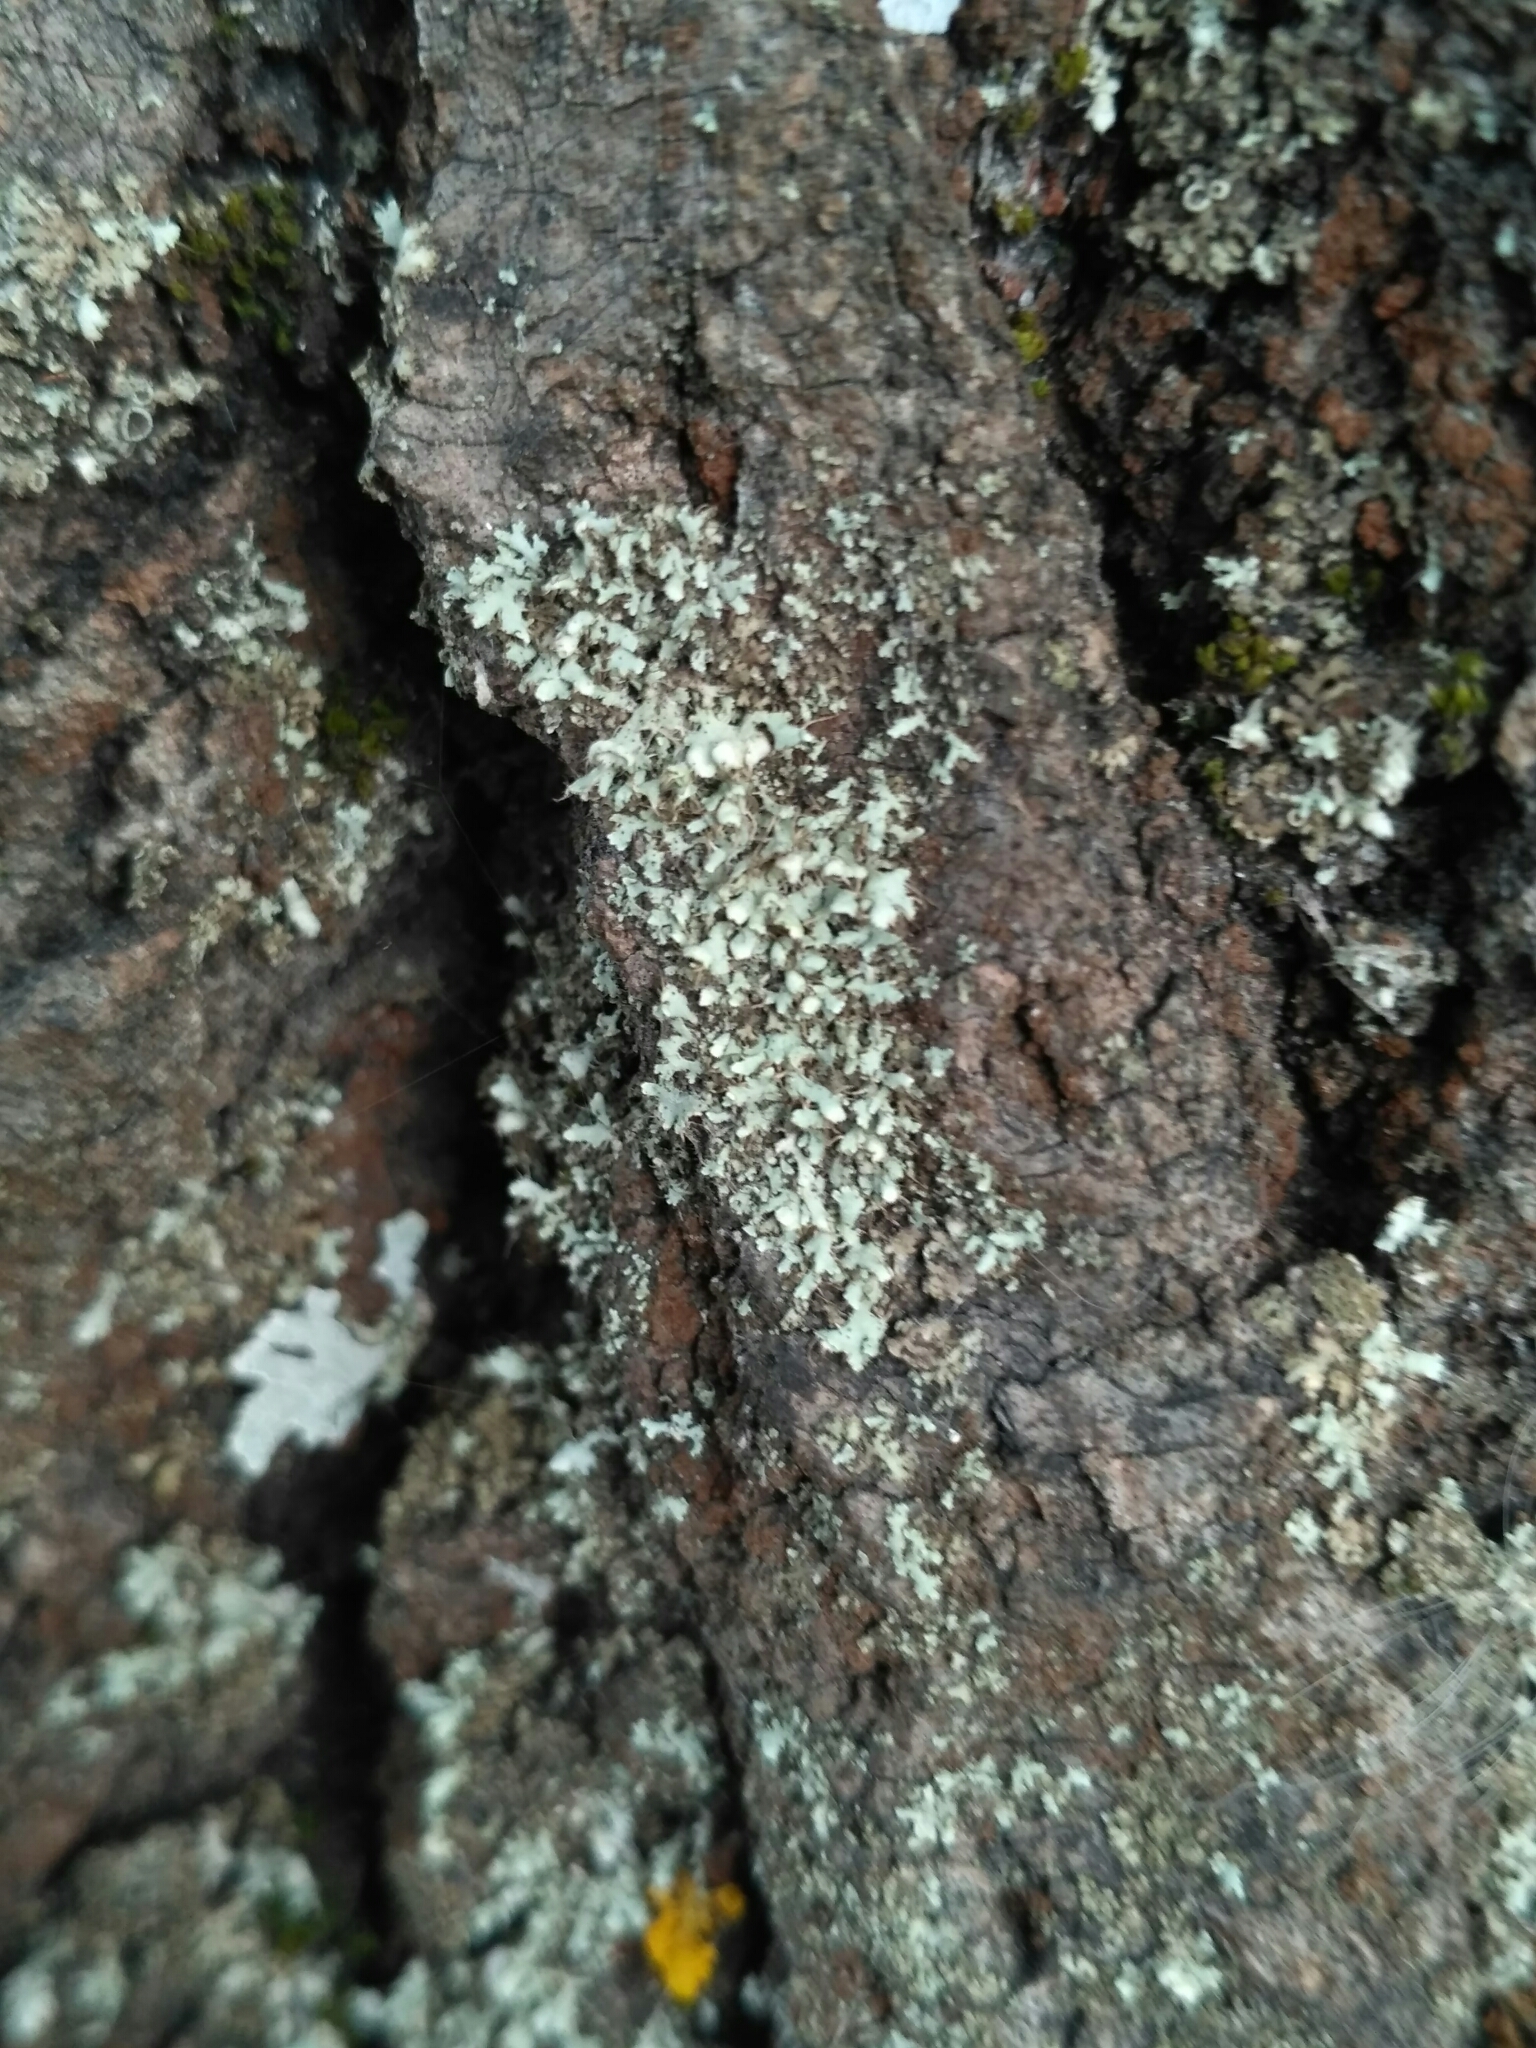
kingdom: Fungi
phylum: Ascomycota
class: Lecanoromycetes
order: Caliciales
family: Physciaceae
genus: Physcia
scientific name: Physcia adscendens
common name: Hooded rosette lichen
